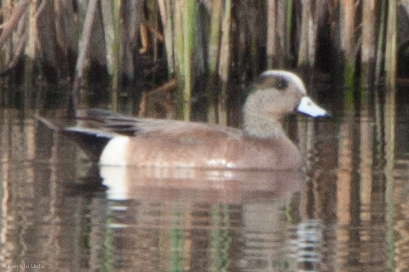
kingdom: Animalia
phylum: Chordata
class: Aves
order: Anseriformes
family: Anatidae
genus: Mareca
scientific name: Mareca americana
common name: American wigeon
